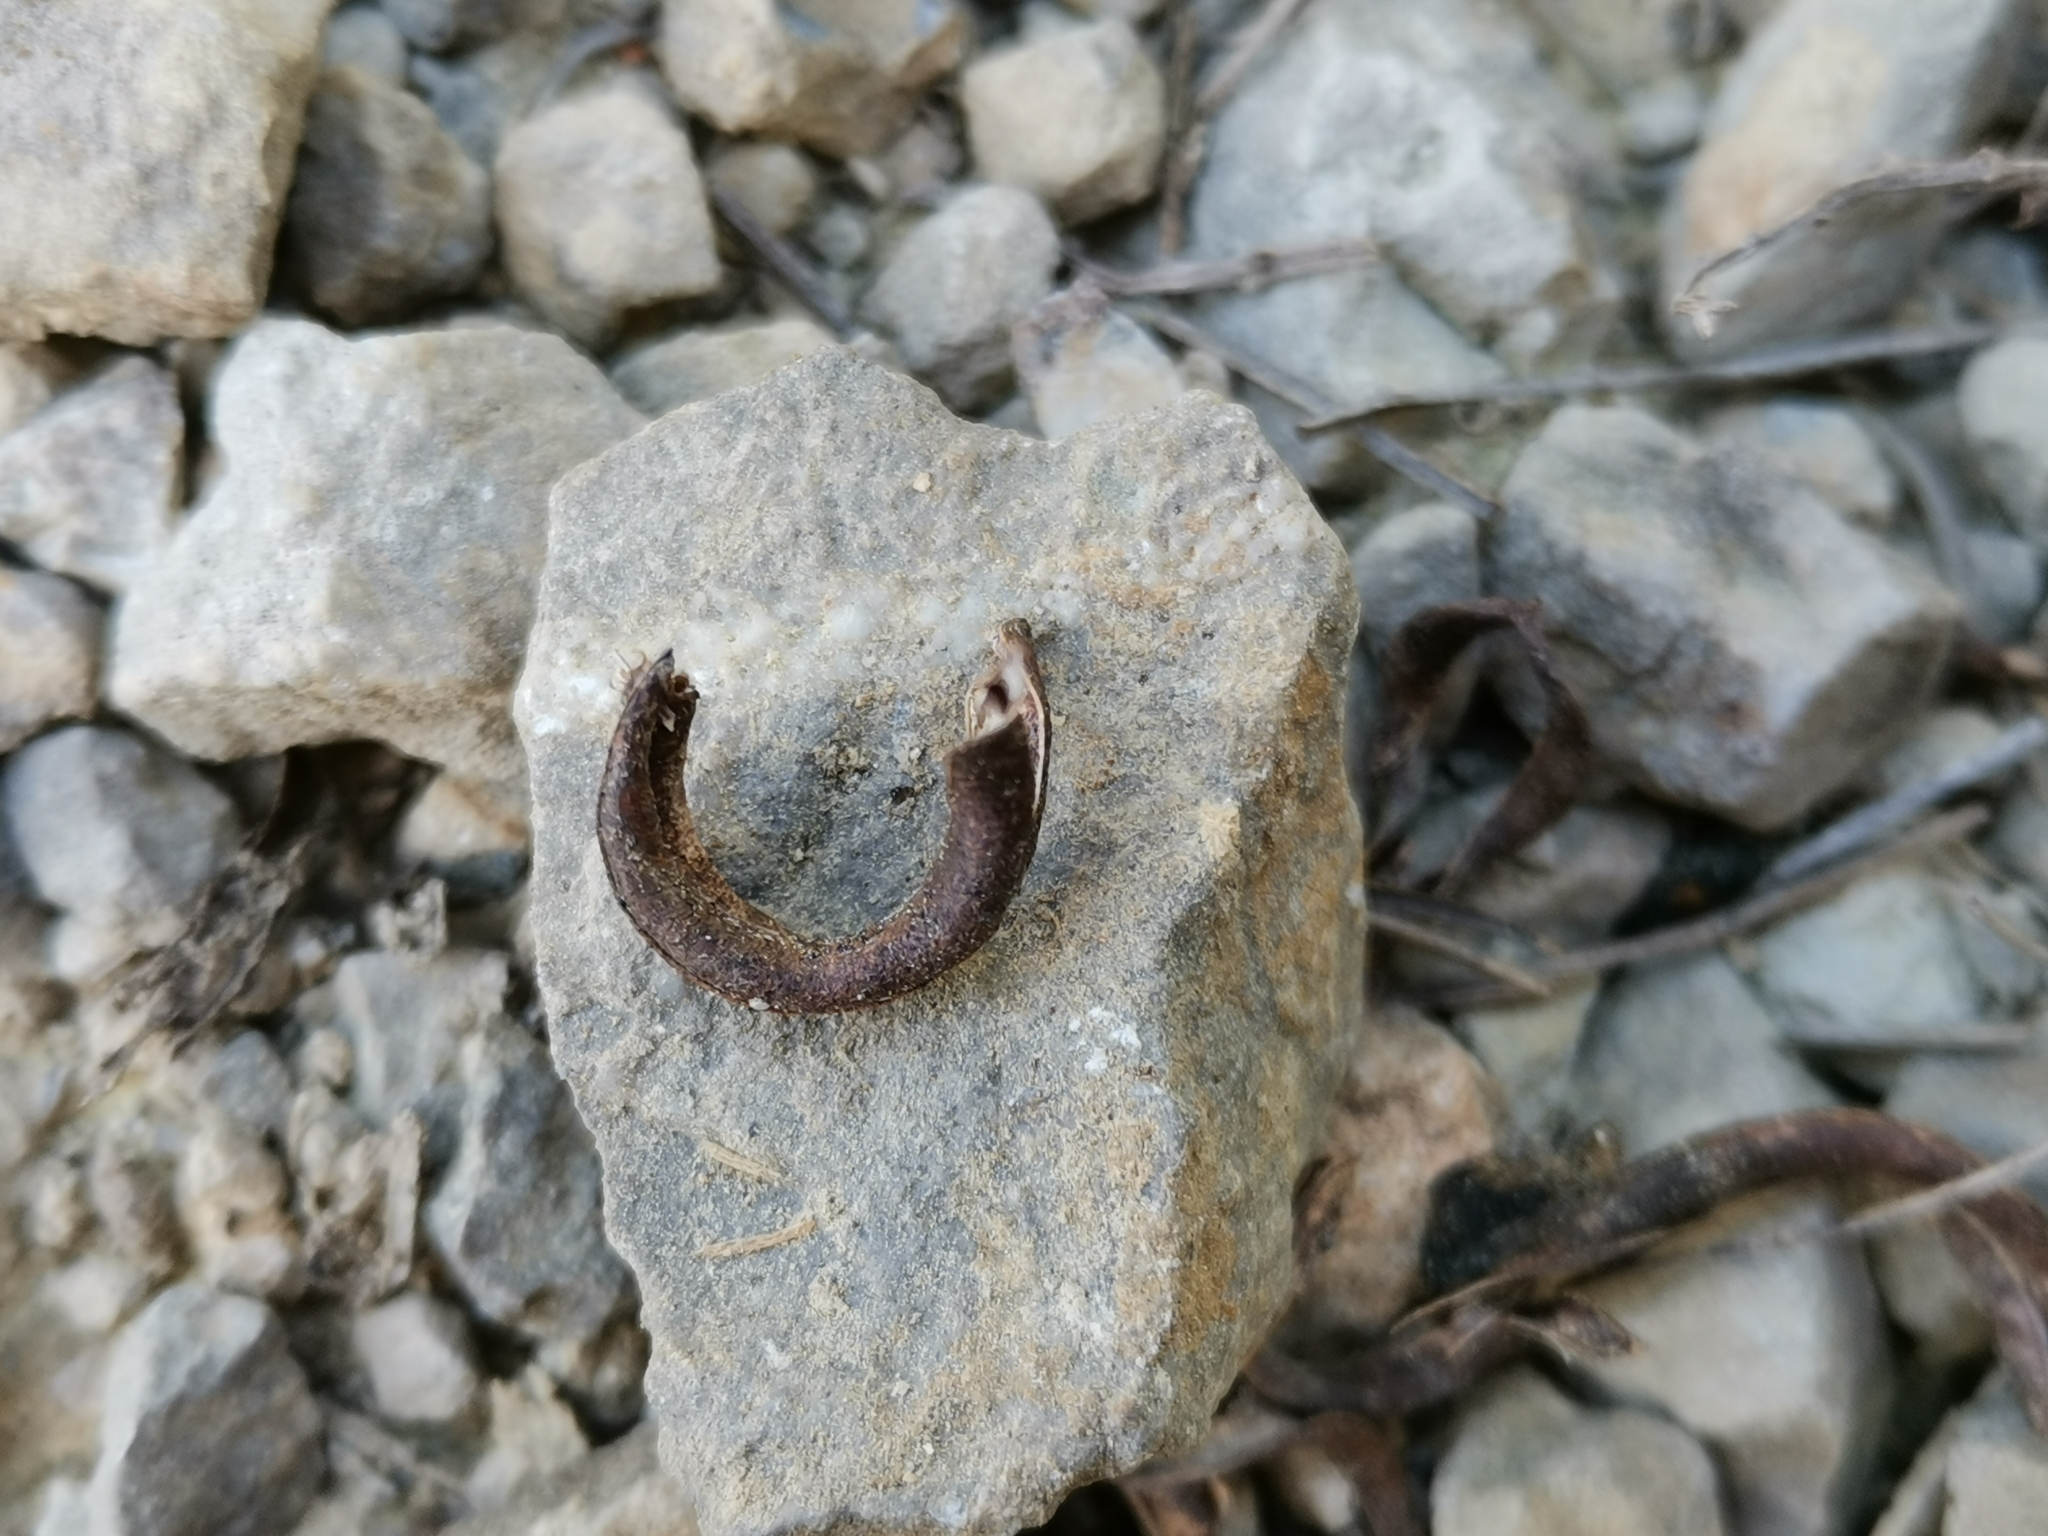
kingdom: Plantae
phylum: Tracheophyta
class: Magnoliopsida
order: Fabales
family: Fabaceae
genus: Astragalus
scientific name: Astragalus monspessulanus
